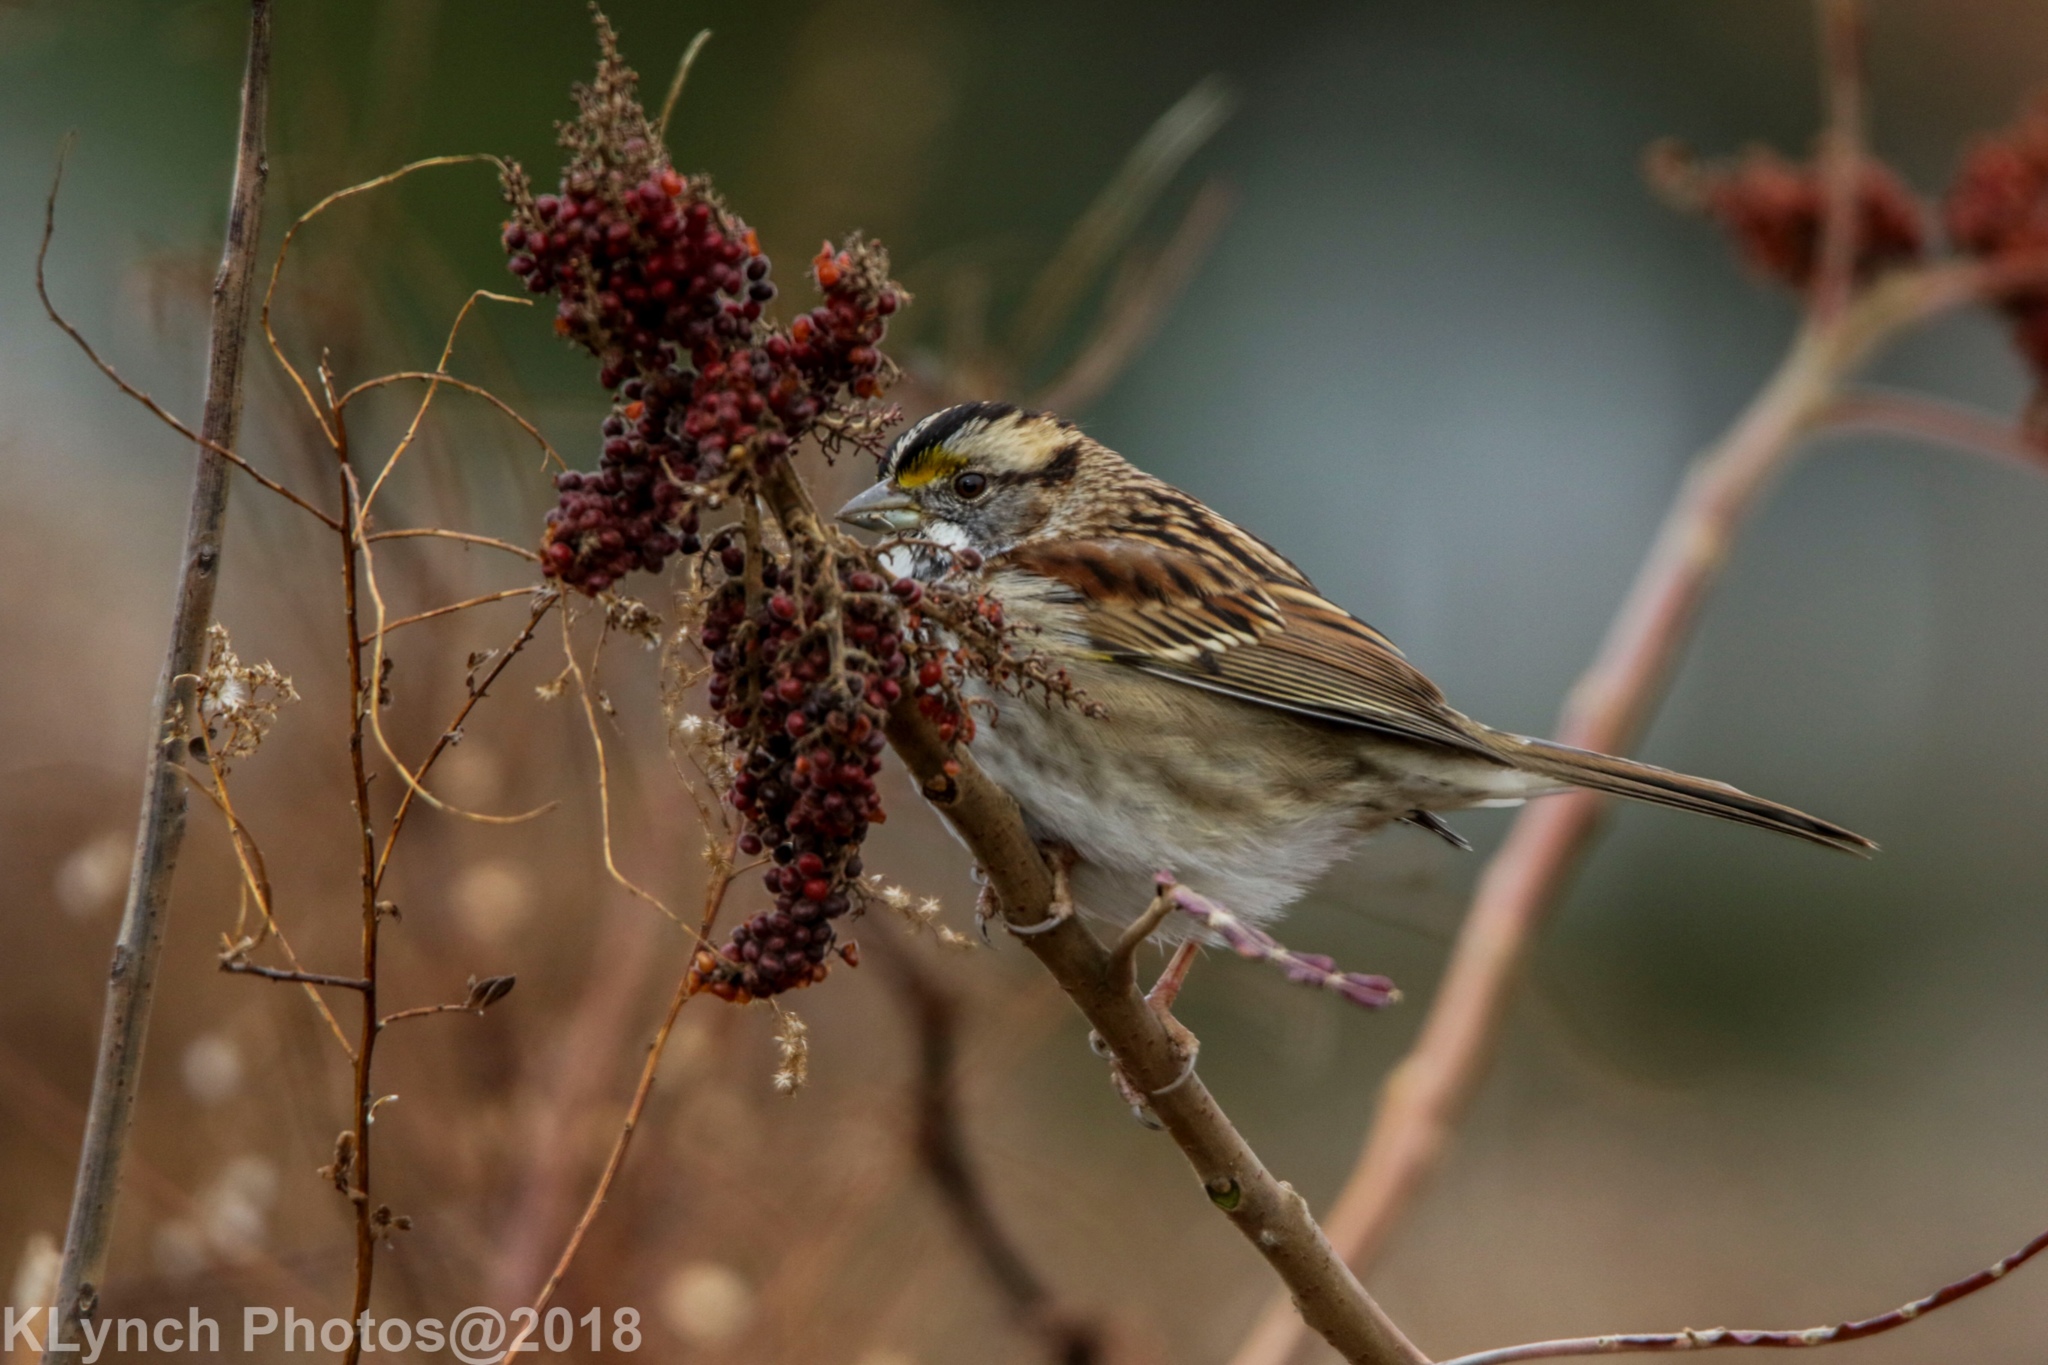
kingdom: Animalia
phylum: Chordata
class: Aves
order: Passeriformes
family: Passerellidae
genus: Zonotrichia
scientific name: Zonotrichia albicollis
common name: White-throated sparrow
